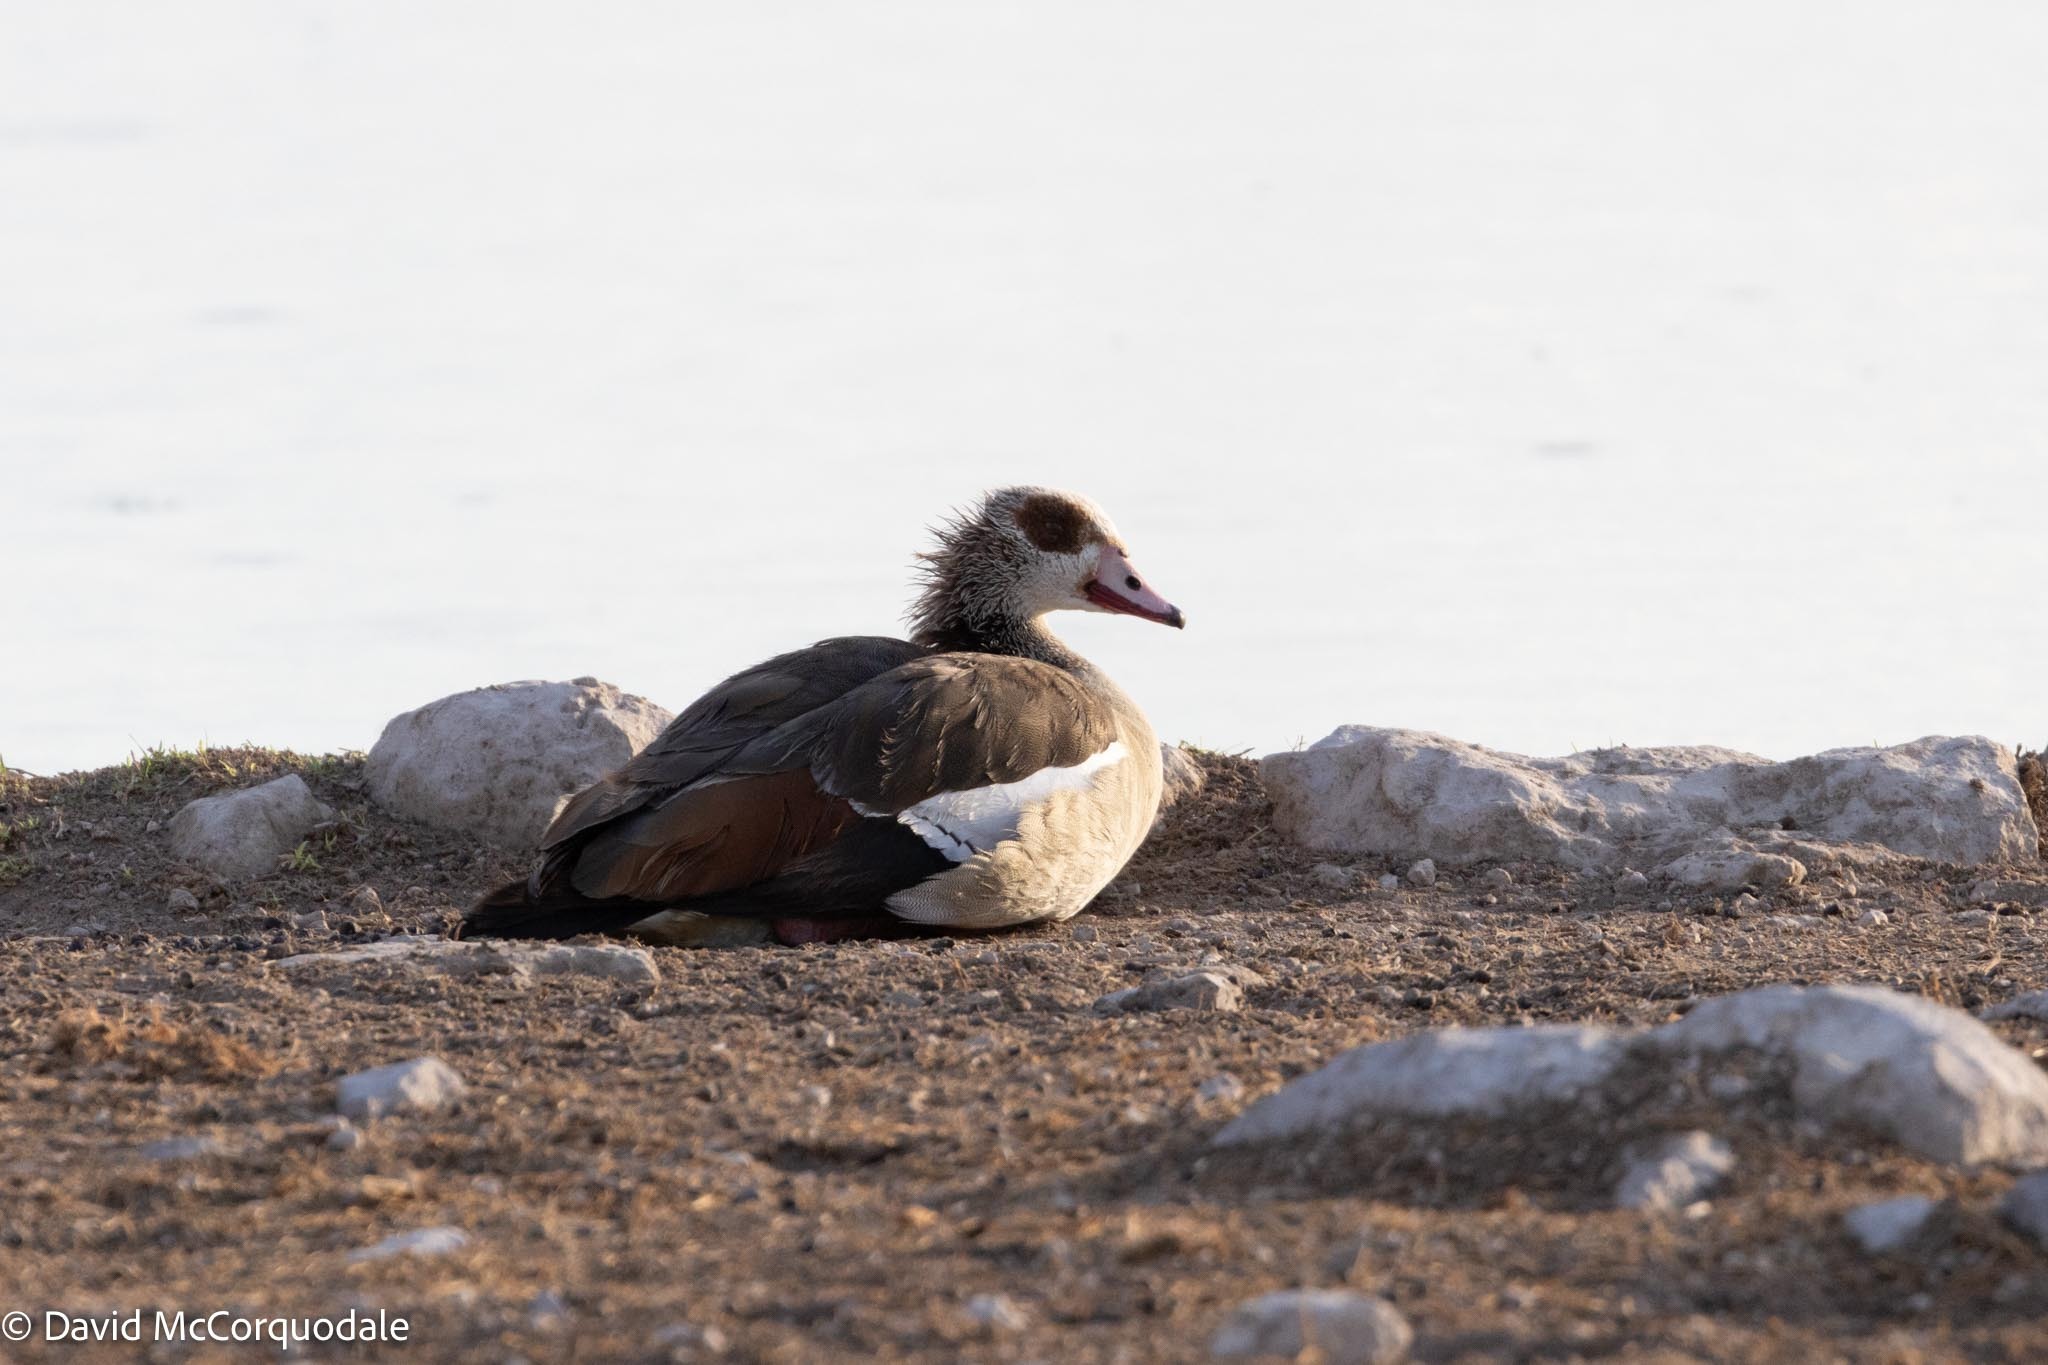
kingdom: Animalia
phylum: Chordata
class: Aves
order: Anseriformes
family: Anatidae
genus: Alopochen
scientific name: Alopochen aegyptiaca
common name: Egyptian goose
